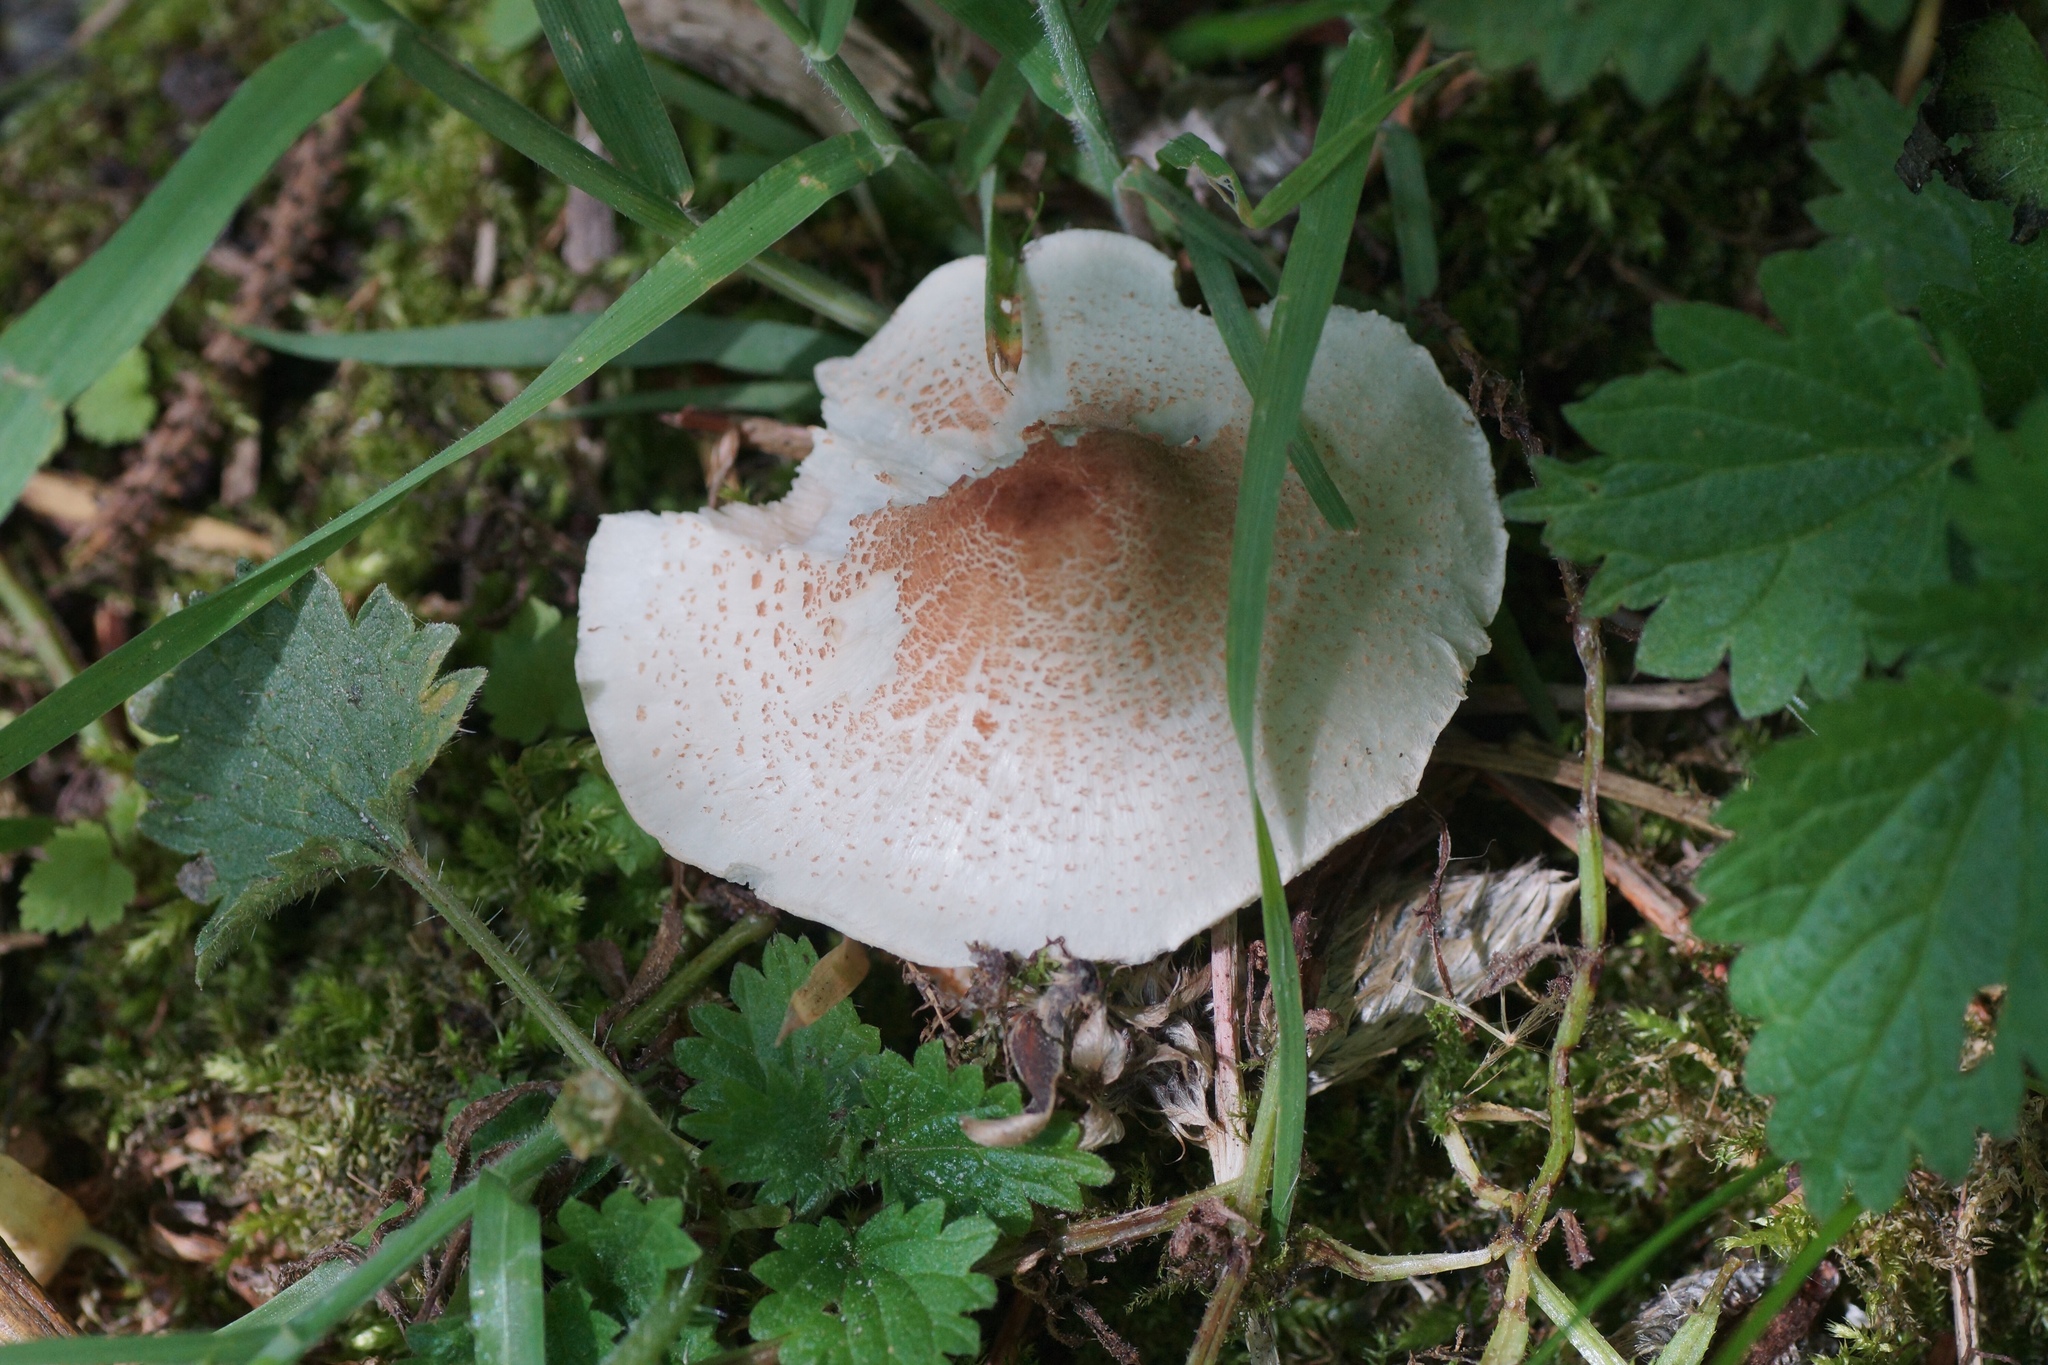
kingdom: Fungi
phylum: Basidiomycota
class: Agaricomycetes
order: Agaricales
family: Agaricaceae
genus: Lepiota
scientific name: Lepiota cristata
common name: Stinking dapperling
